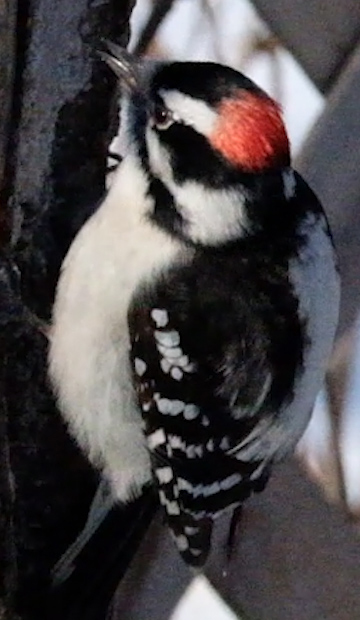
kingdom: Animalia
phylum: Chordata
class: Aves
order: Piciformes
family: Picidae
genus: Dryobates
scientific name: Dryobates pubescens
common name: Downy woodpecker
